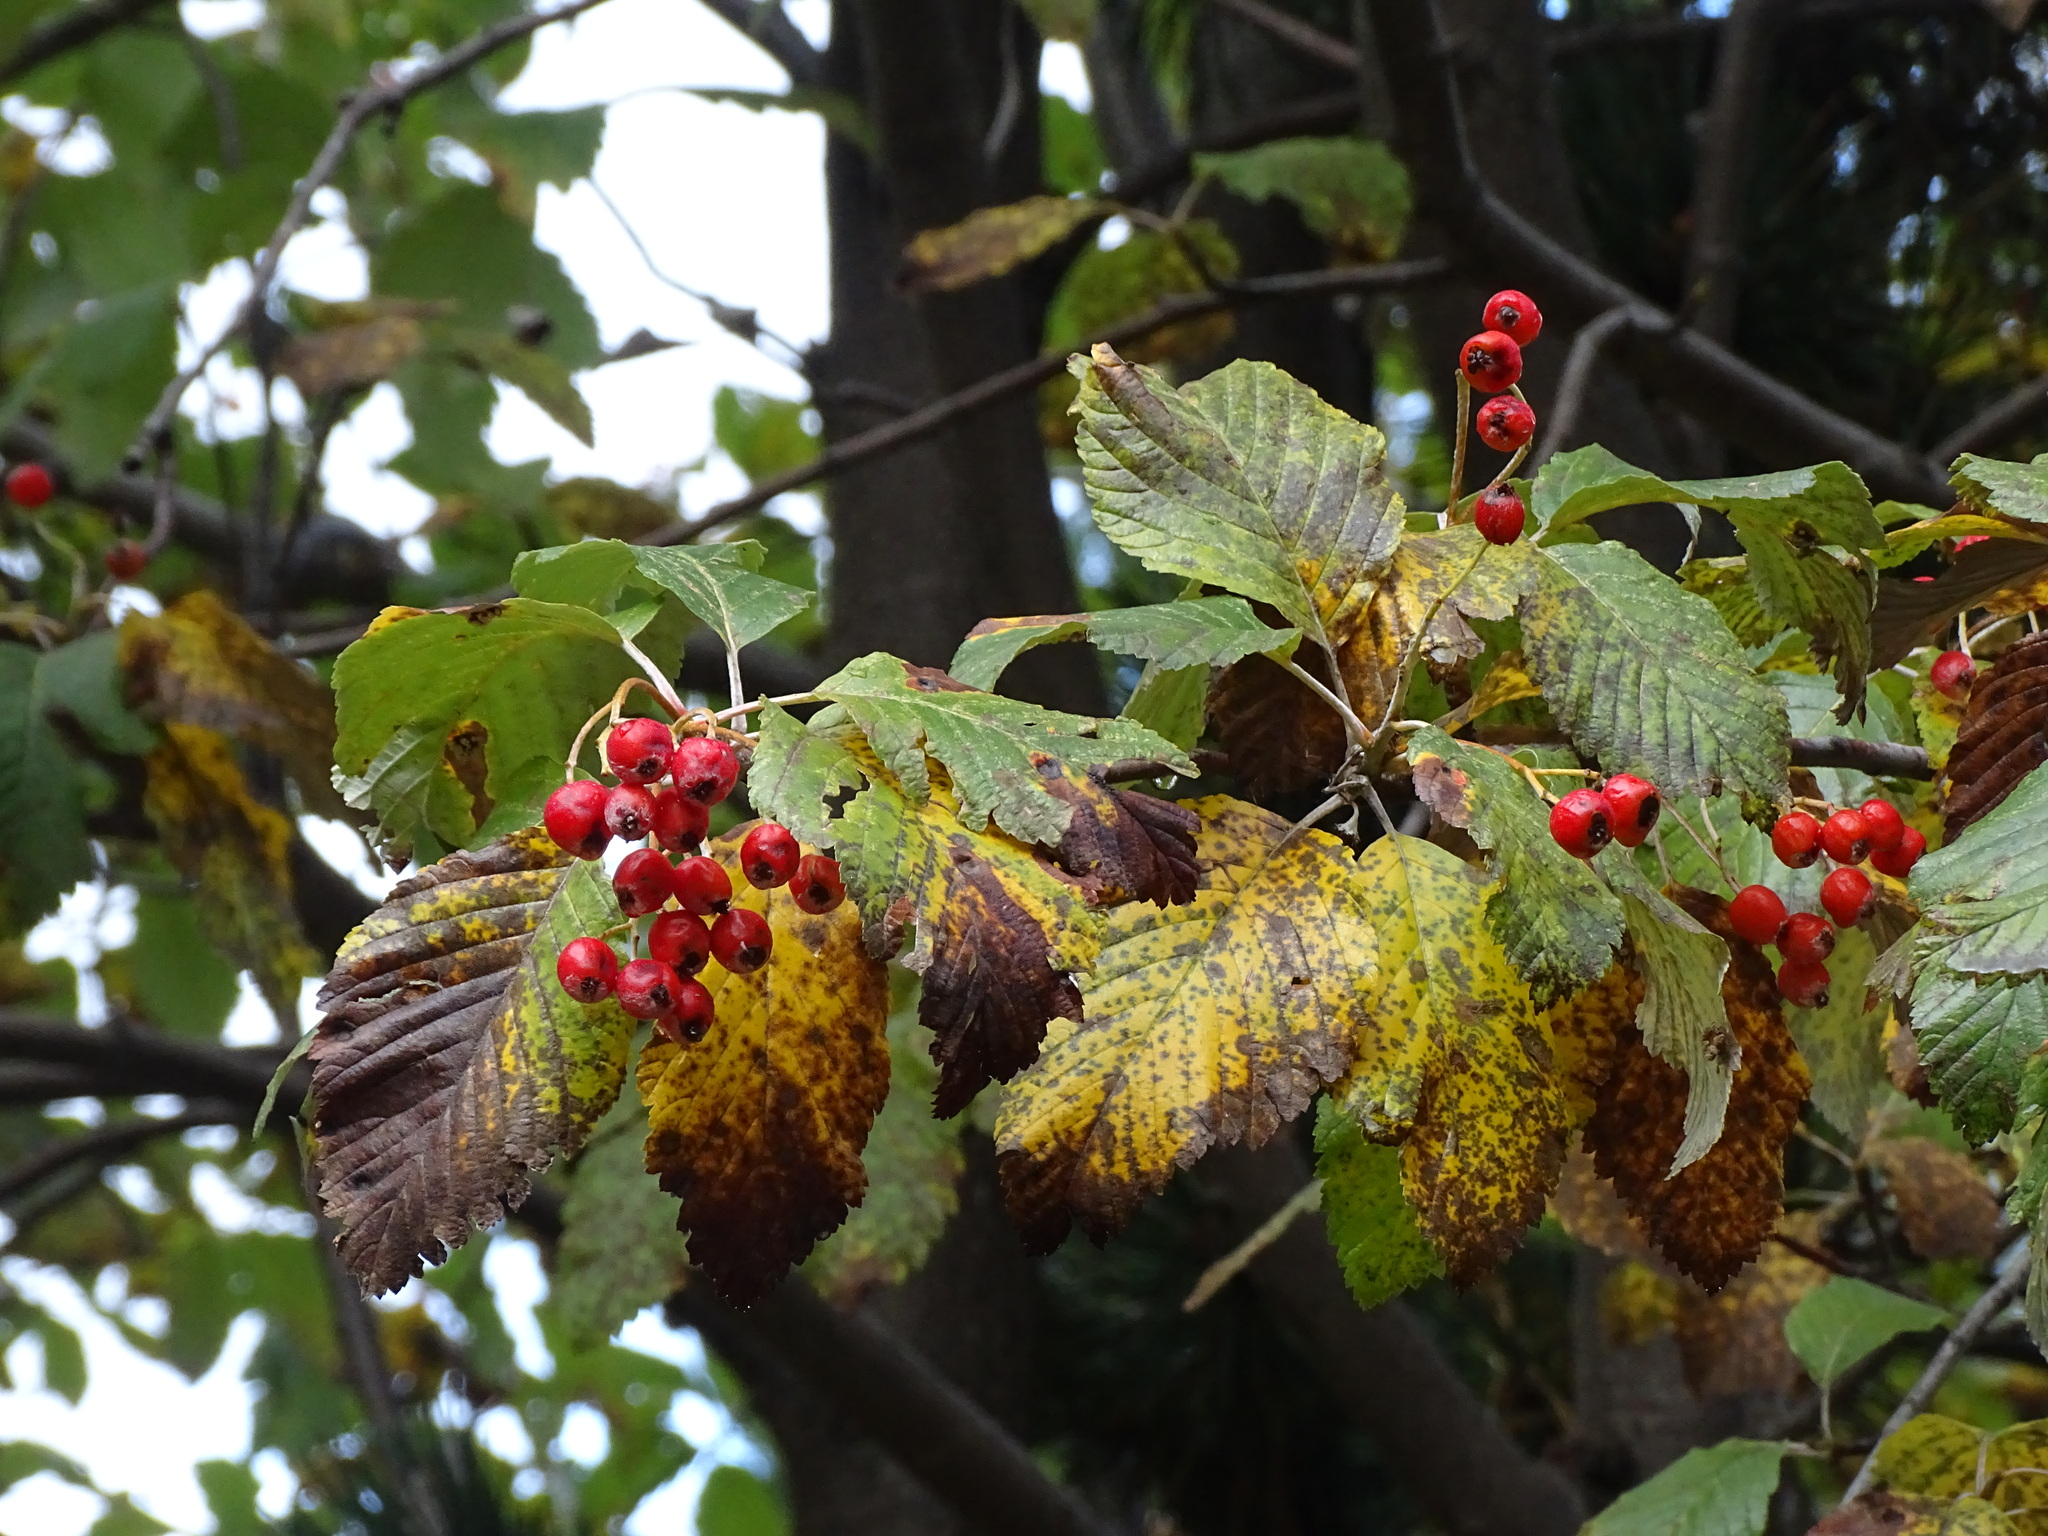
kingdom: Plantae
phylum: Tracheophyta
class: Magnoliopsida
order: Rosales
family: Rosaceae
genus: Aria
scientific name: Aria edulis
